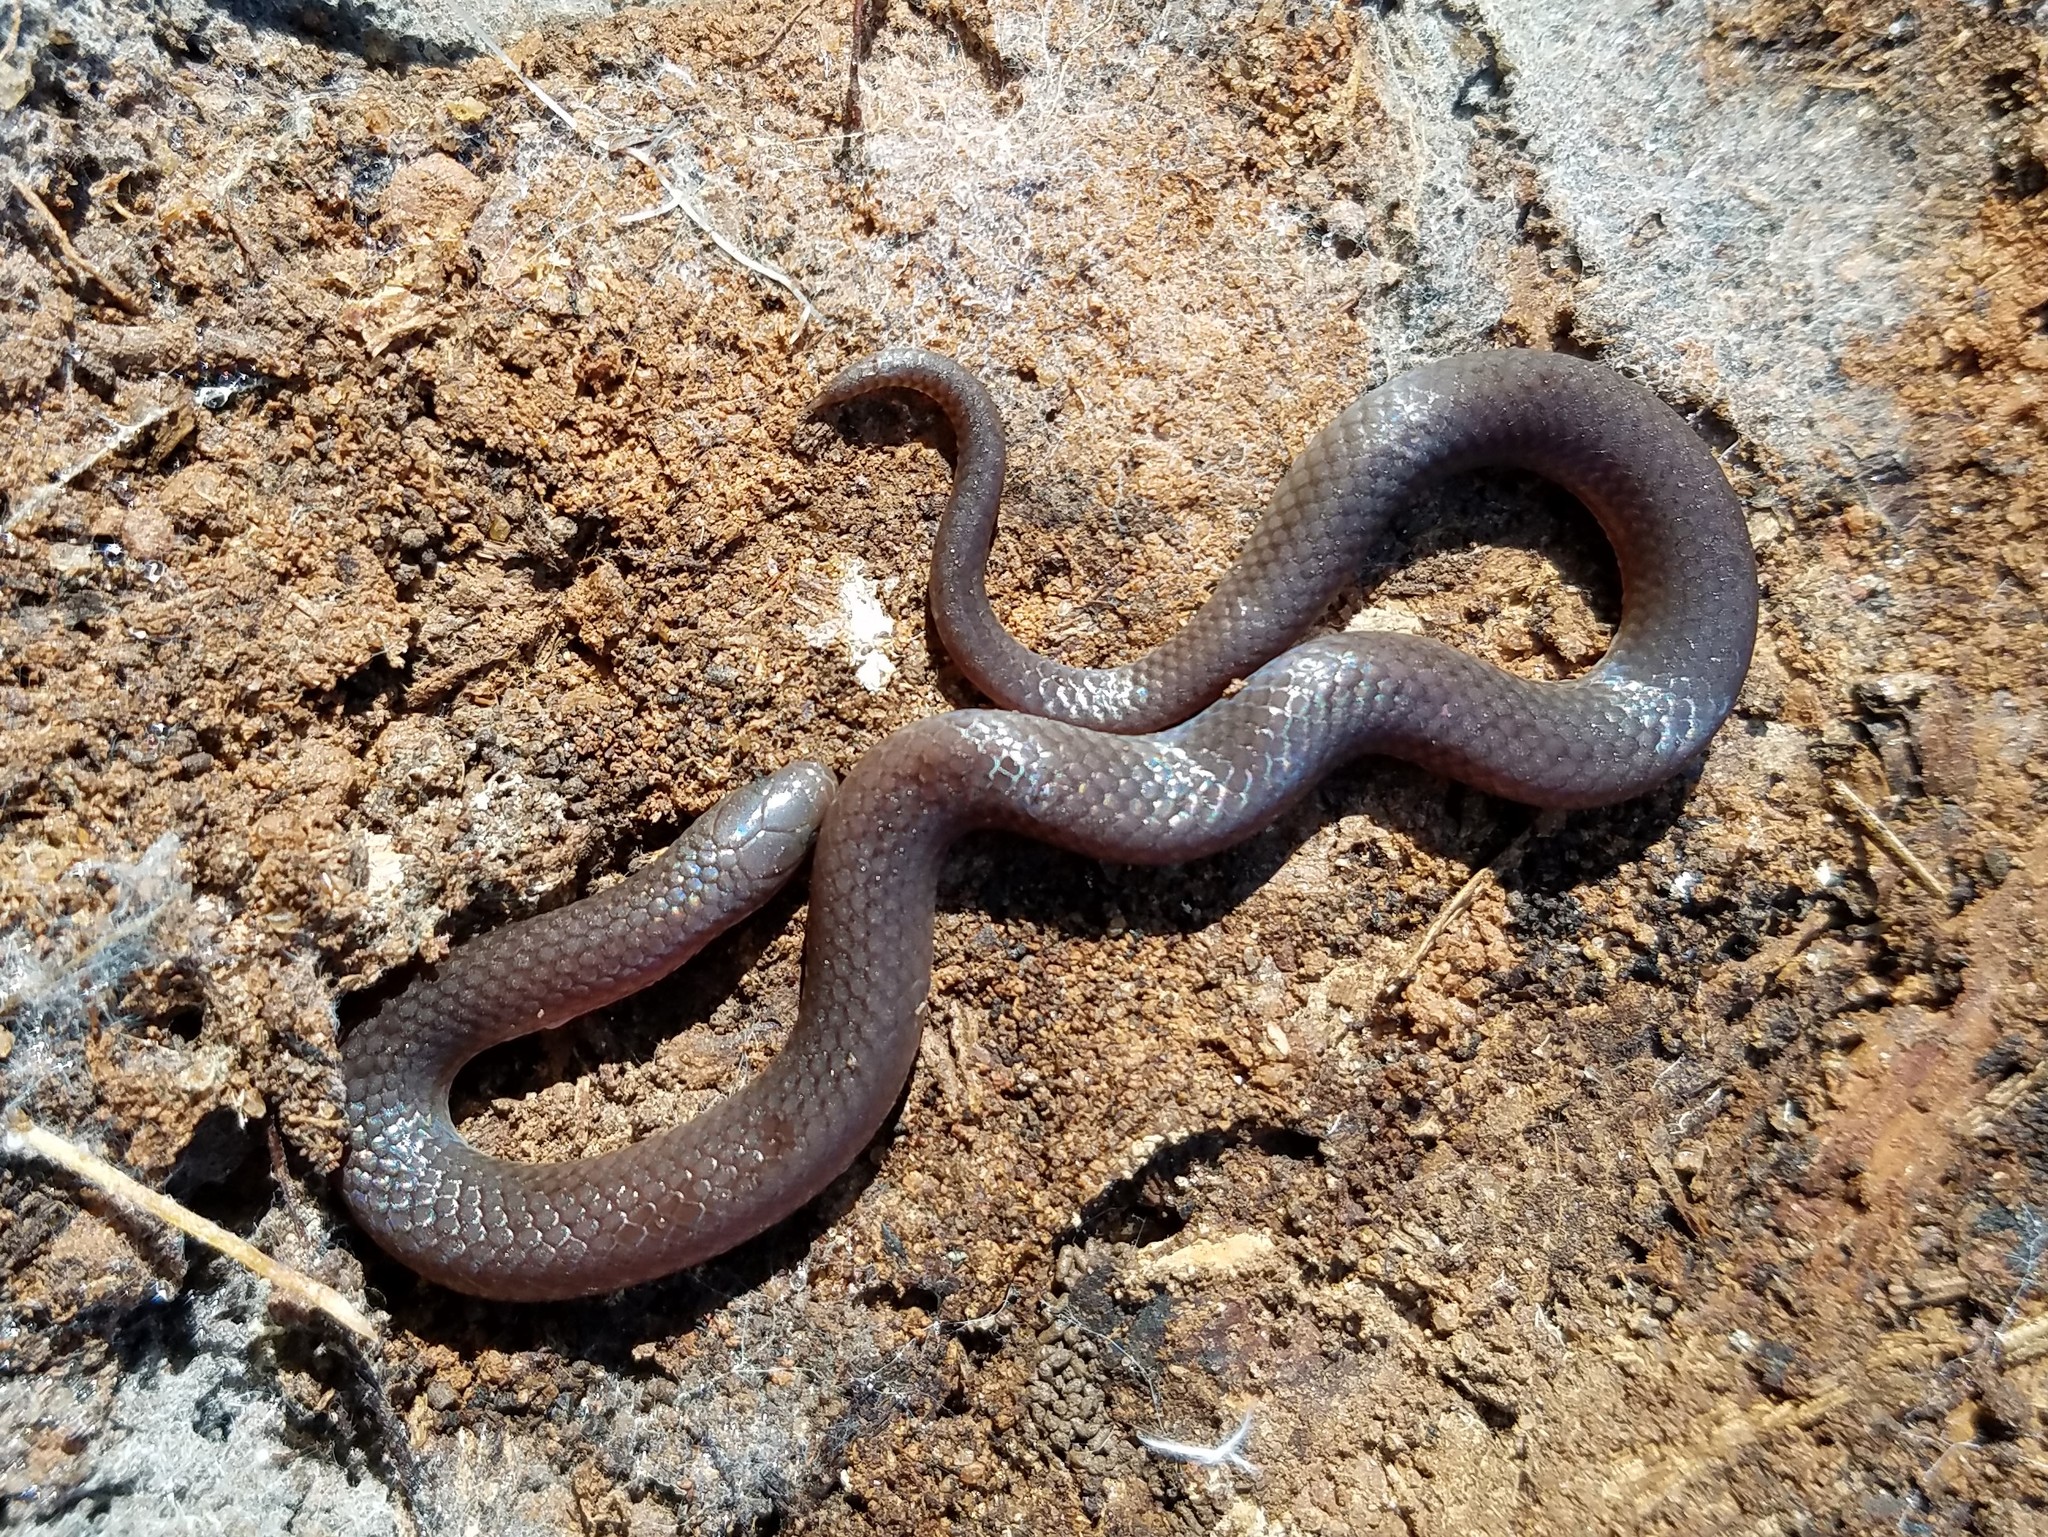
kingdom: Animalia
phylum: Chordata
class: Squamata
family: Colubridae
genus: Carphophis
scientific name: Carphophis amoenus
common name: Eastern worm snake
